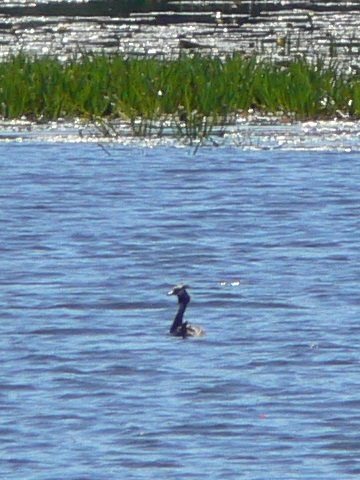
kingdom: Animalia
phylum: Chordata
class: Aves
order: Podicipediformes
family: Podicipedidae
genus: Podiceps
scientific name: Podiceps cristatus
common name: Great crested grebe
